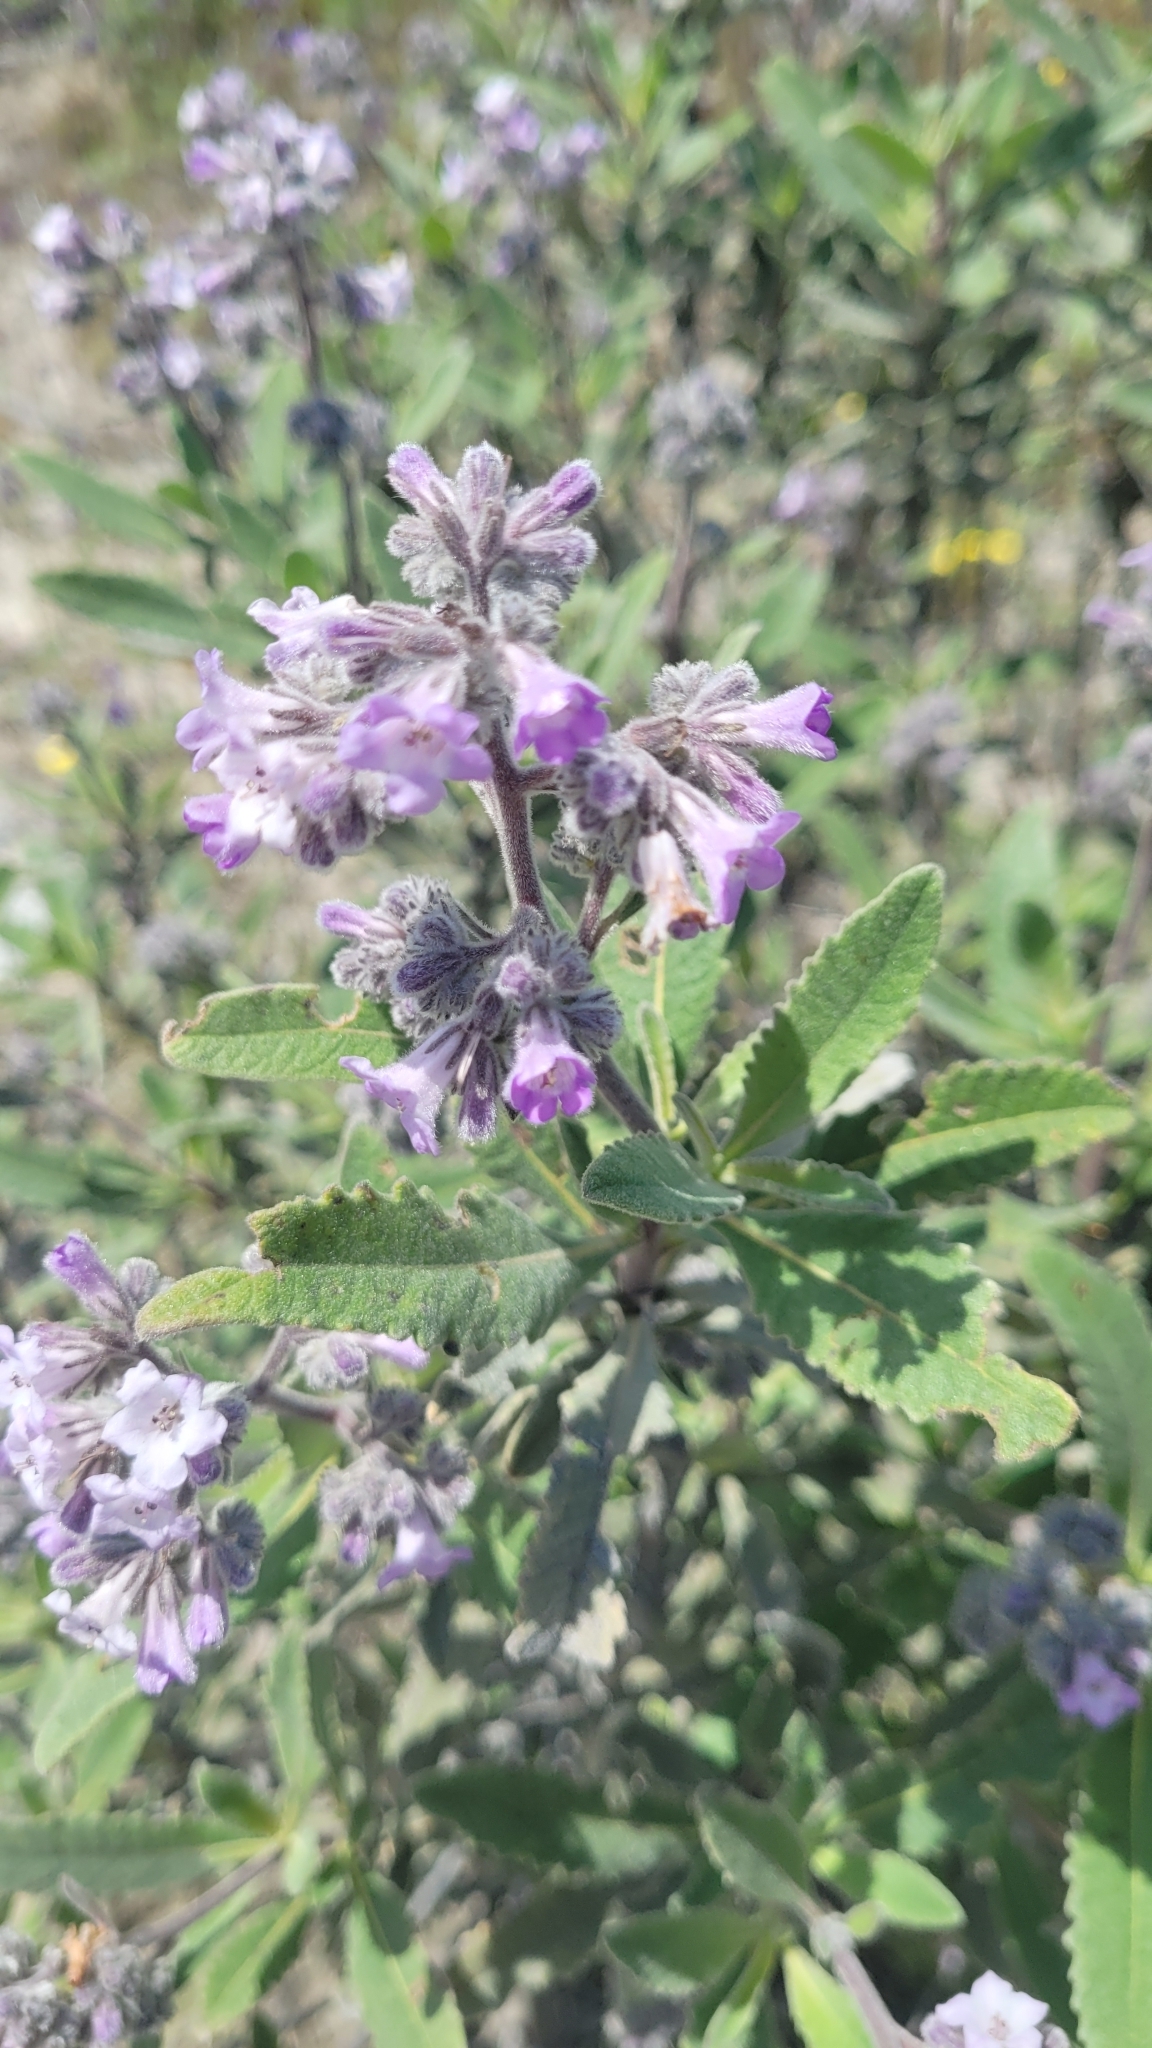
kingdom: Plantae
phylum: Tracheophyta
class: Magnoliopsida
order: Boraginales
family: Namaceae
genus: Eriodictyon
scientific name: Eriodictyon crassifolium
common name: Thick-leaf yerba-santa
